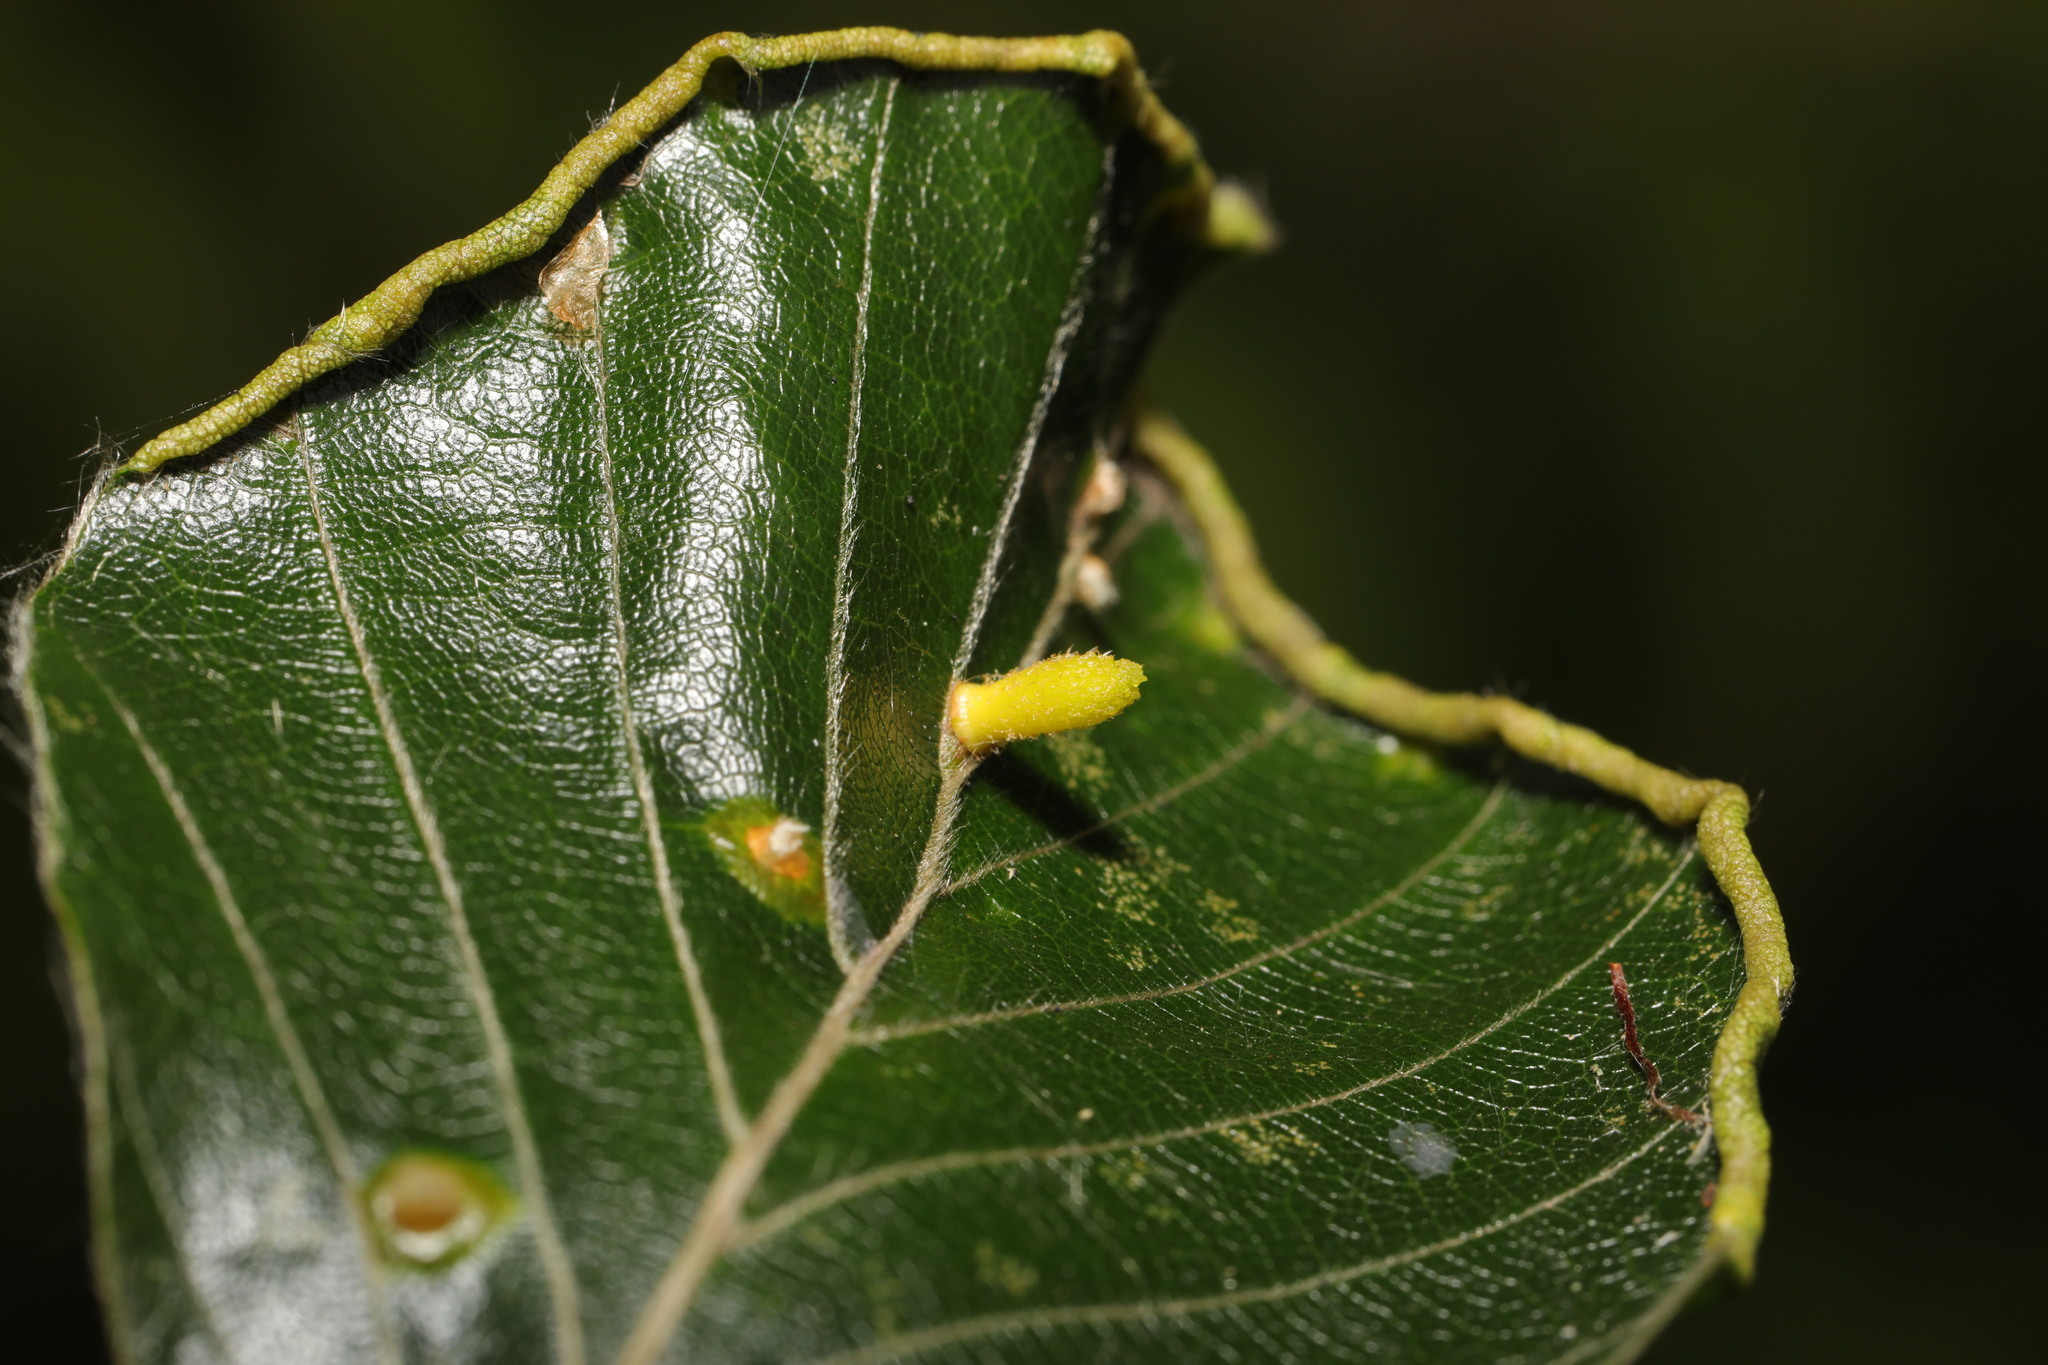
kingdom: Animalia
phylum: Arthropoda
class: Insecta
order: Diptera
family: Cecidomyiidae
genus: Hartigiola
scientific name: Hartigiola annulipes
